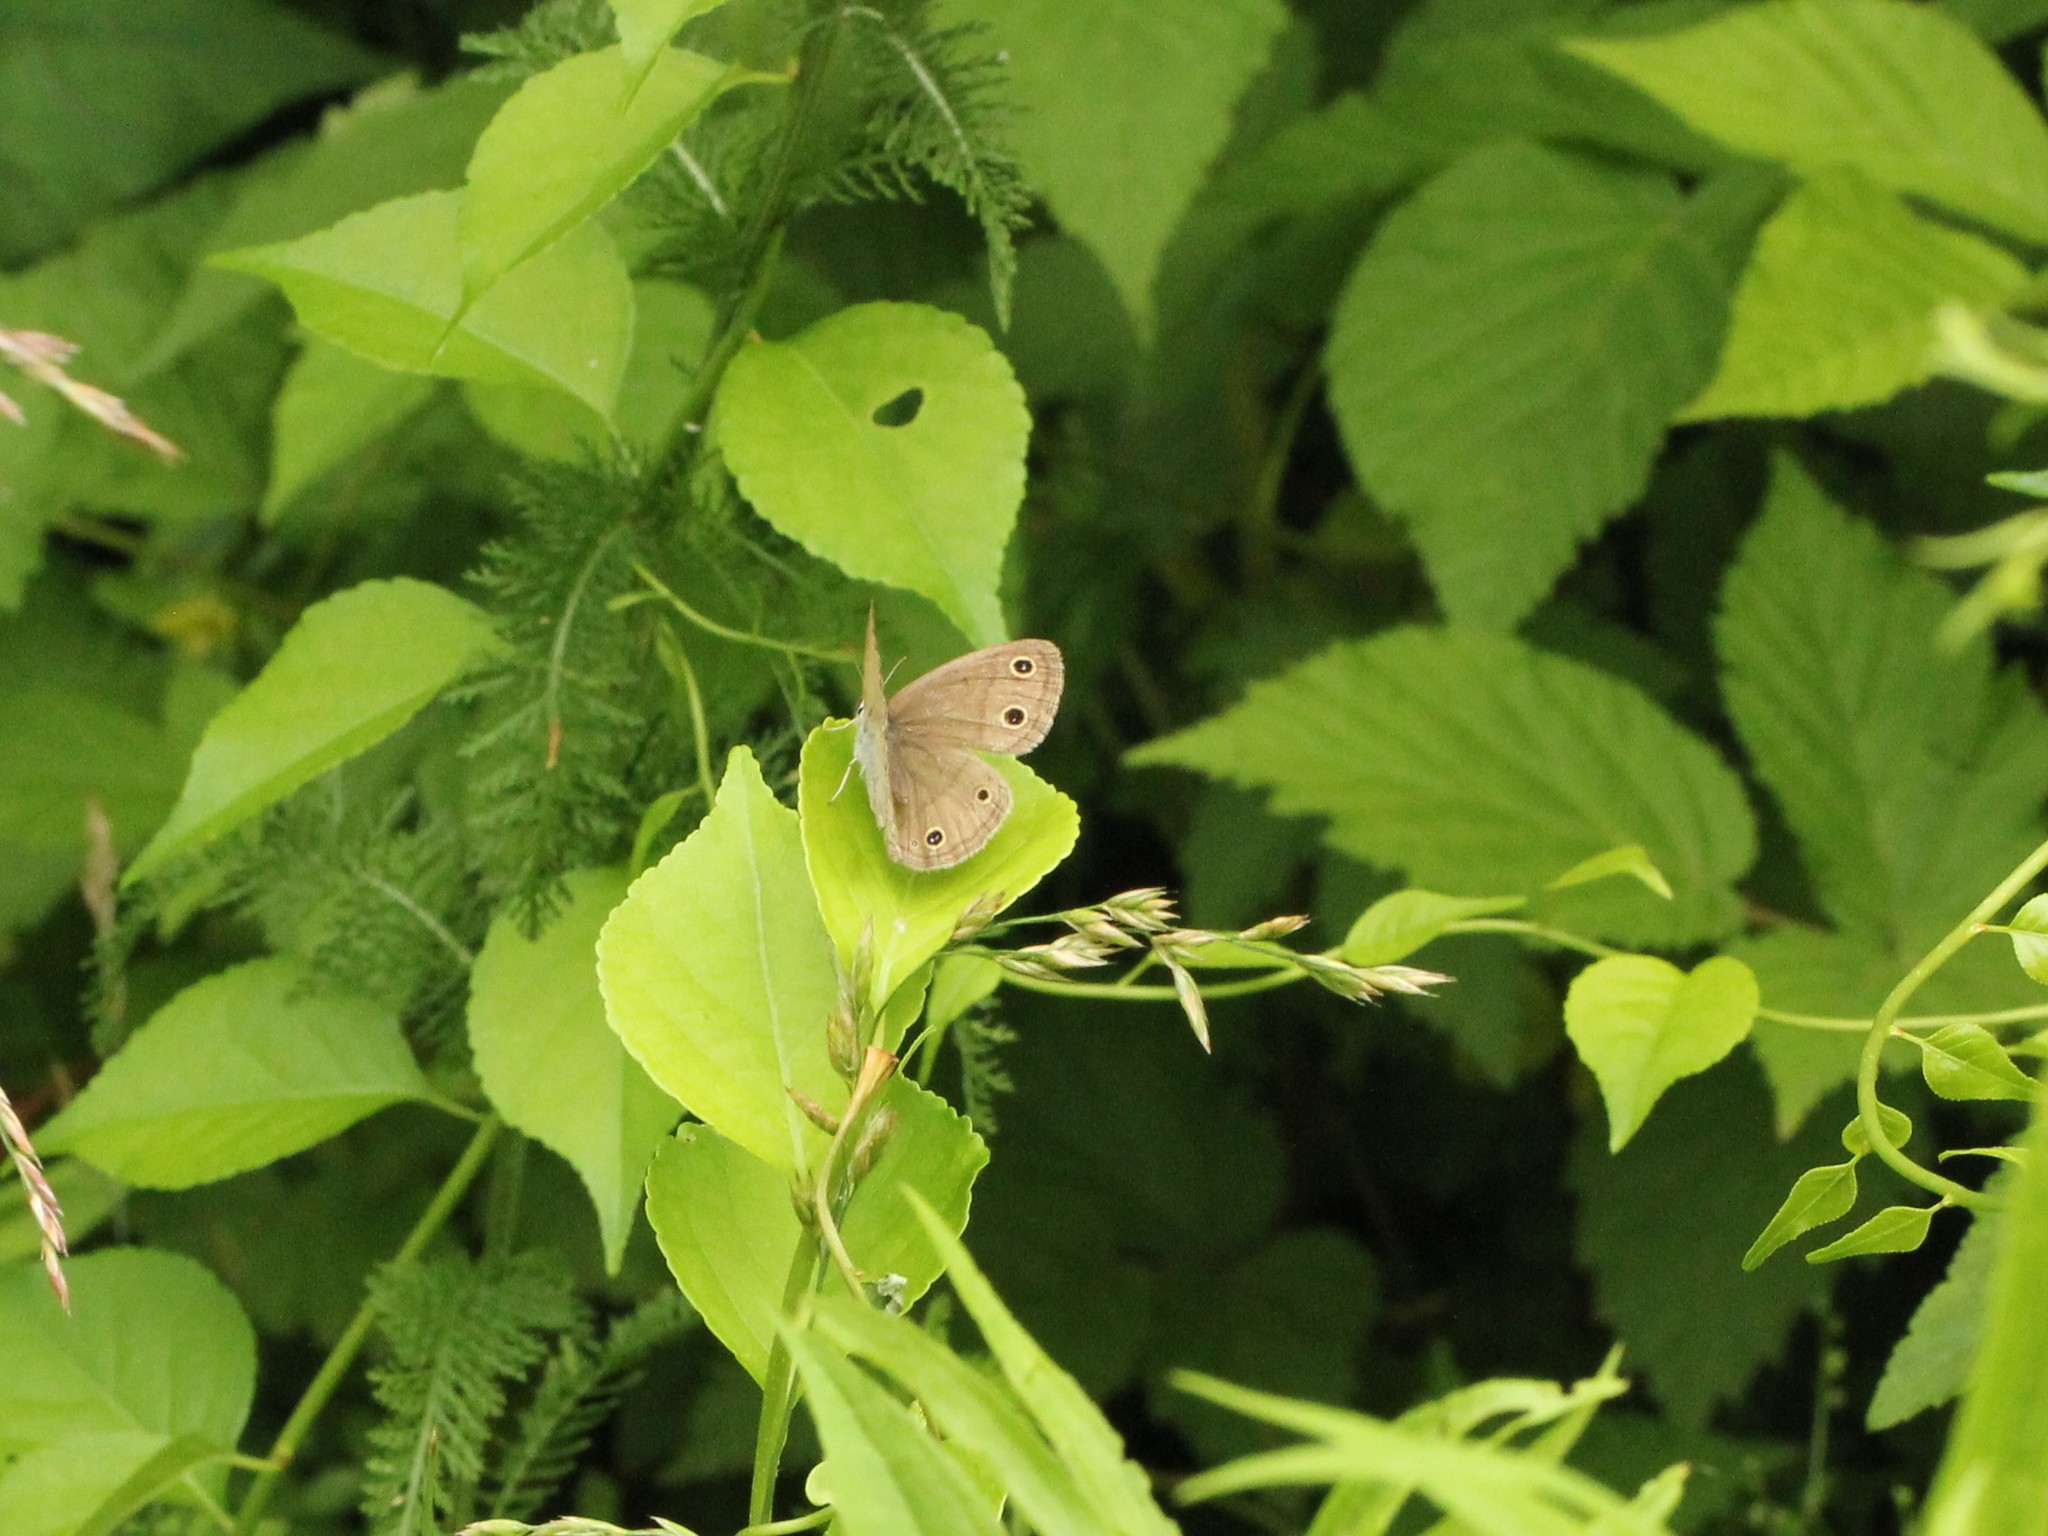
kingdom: Animalia
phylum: Arthropoda
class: Insecta
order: Lepidoptera
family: Nymphalidae
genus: Euptychia
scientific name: Euptychia cymela
